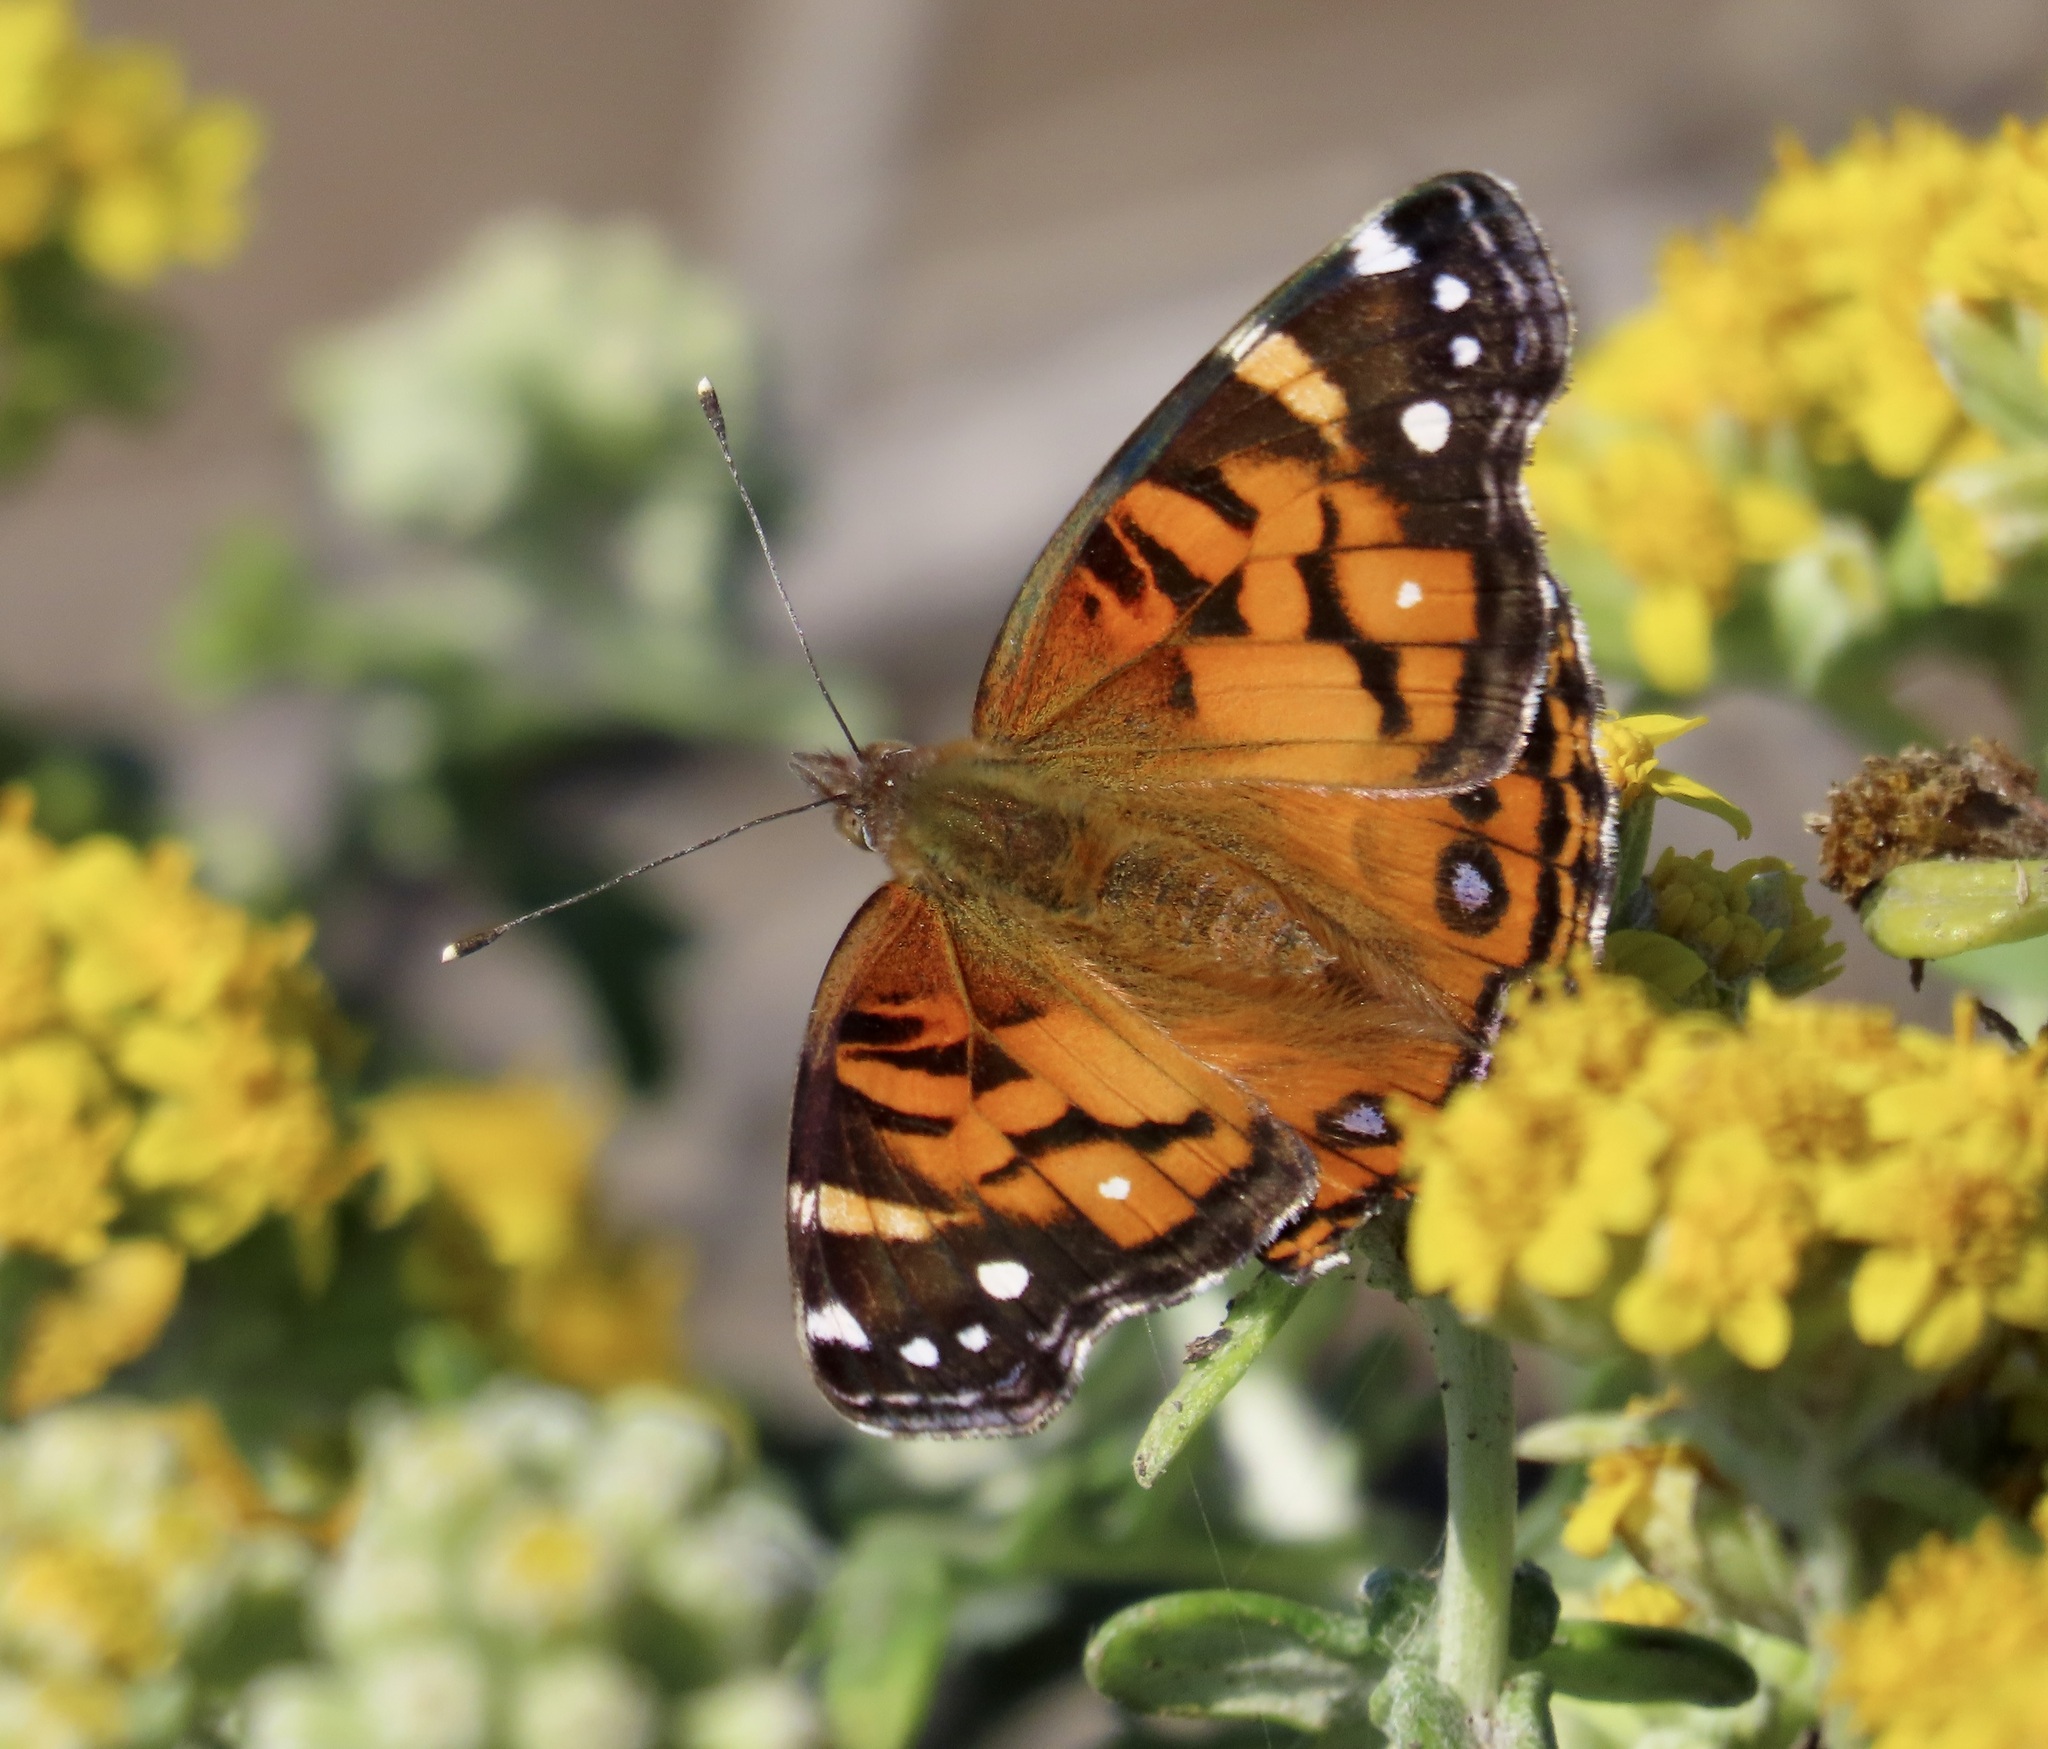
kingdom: Animalia
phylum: Arthropoda
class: Insecta
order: Lepidoptera
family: Nymphalidae
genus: Vanessa
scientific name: Vanessa virginiensis
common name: American lady
